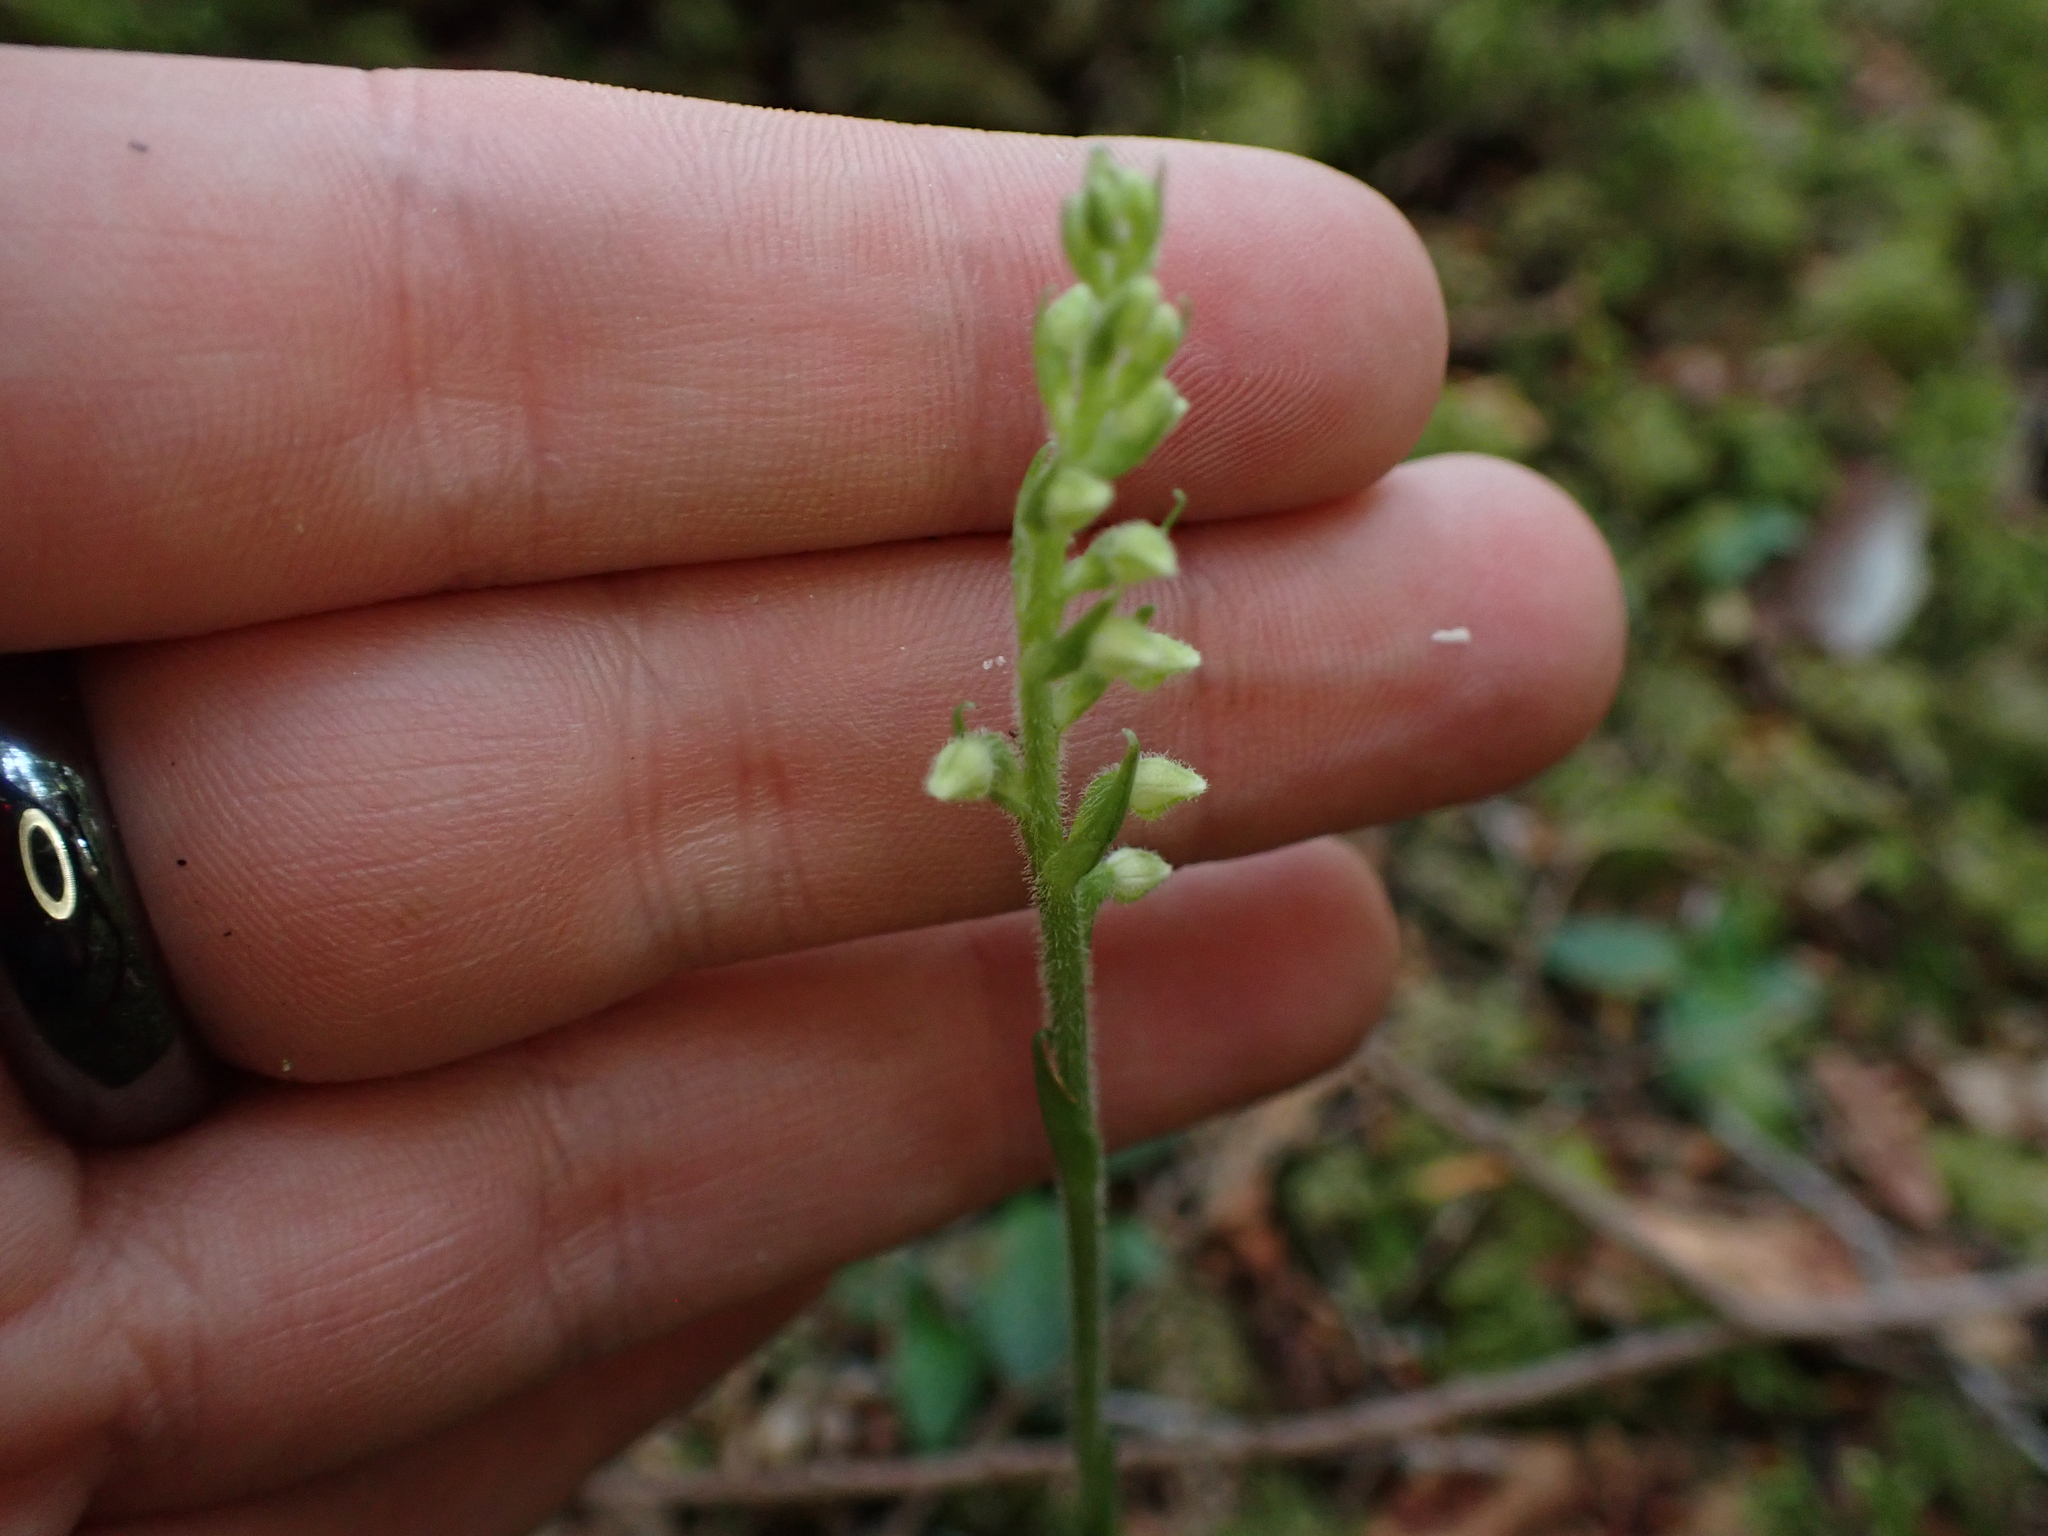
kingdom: Plantae
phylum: Tracheophyta
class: Liliopsida
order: Asparagales
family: Orchidaceae
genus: Goodyera
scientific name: Goodyera repens
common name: Creeping lady's-tresses
